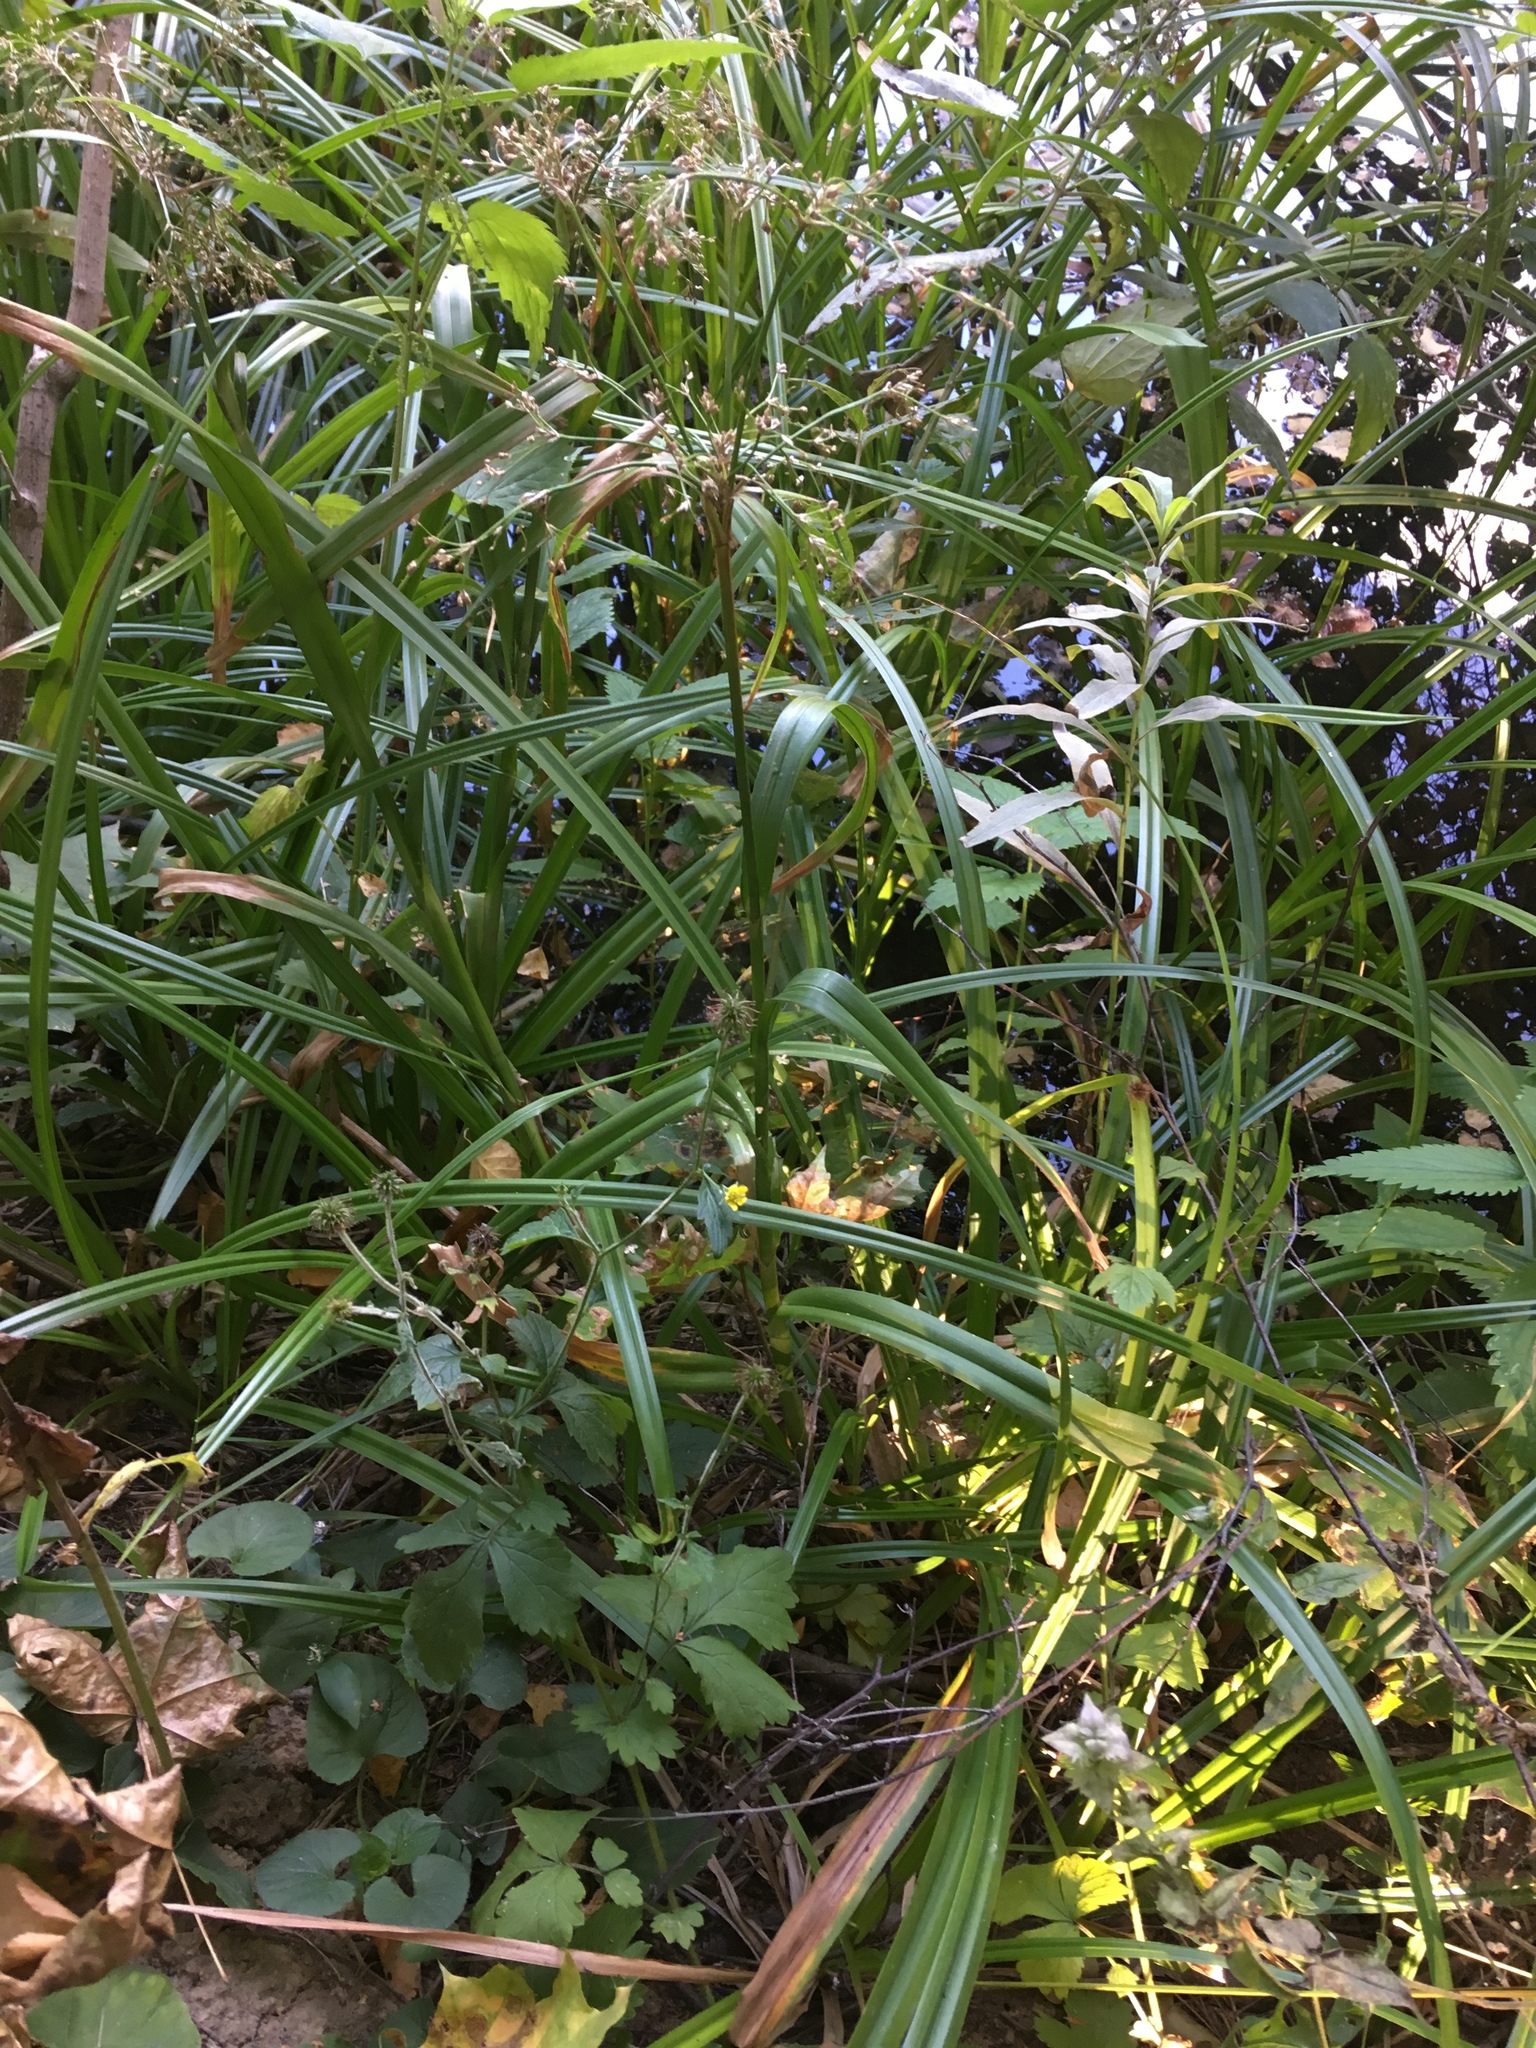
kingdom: Plantae
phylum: Tracheophyta
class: Liliopsida
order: Poales
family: Cyperaceae
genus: Scirpus
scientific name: Scirpus sylvaticus
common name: Wood club-rush
